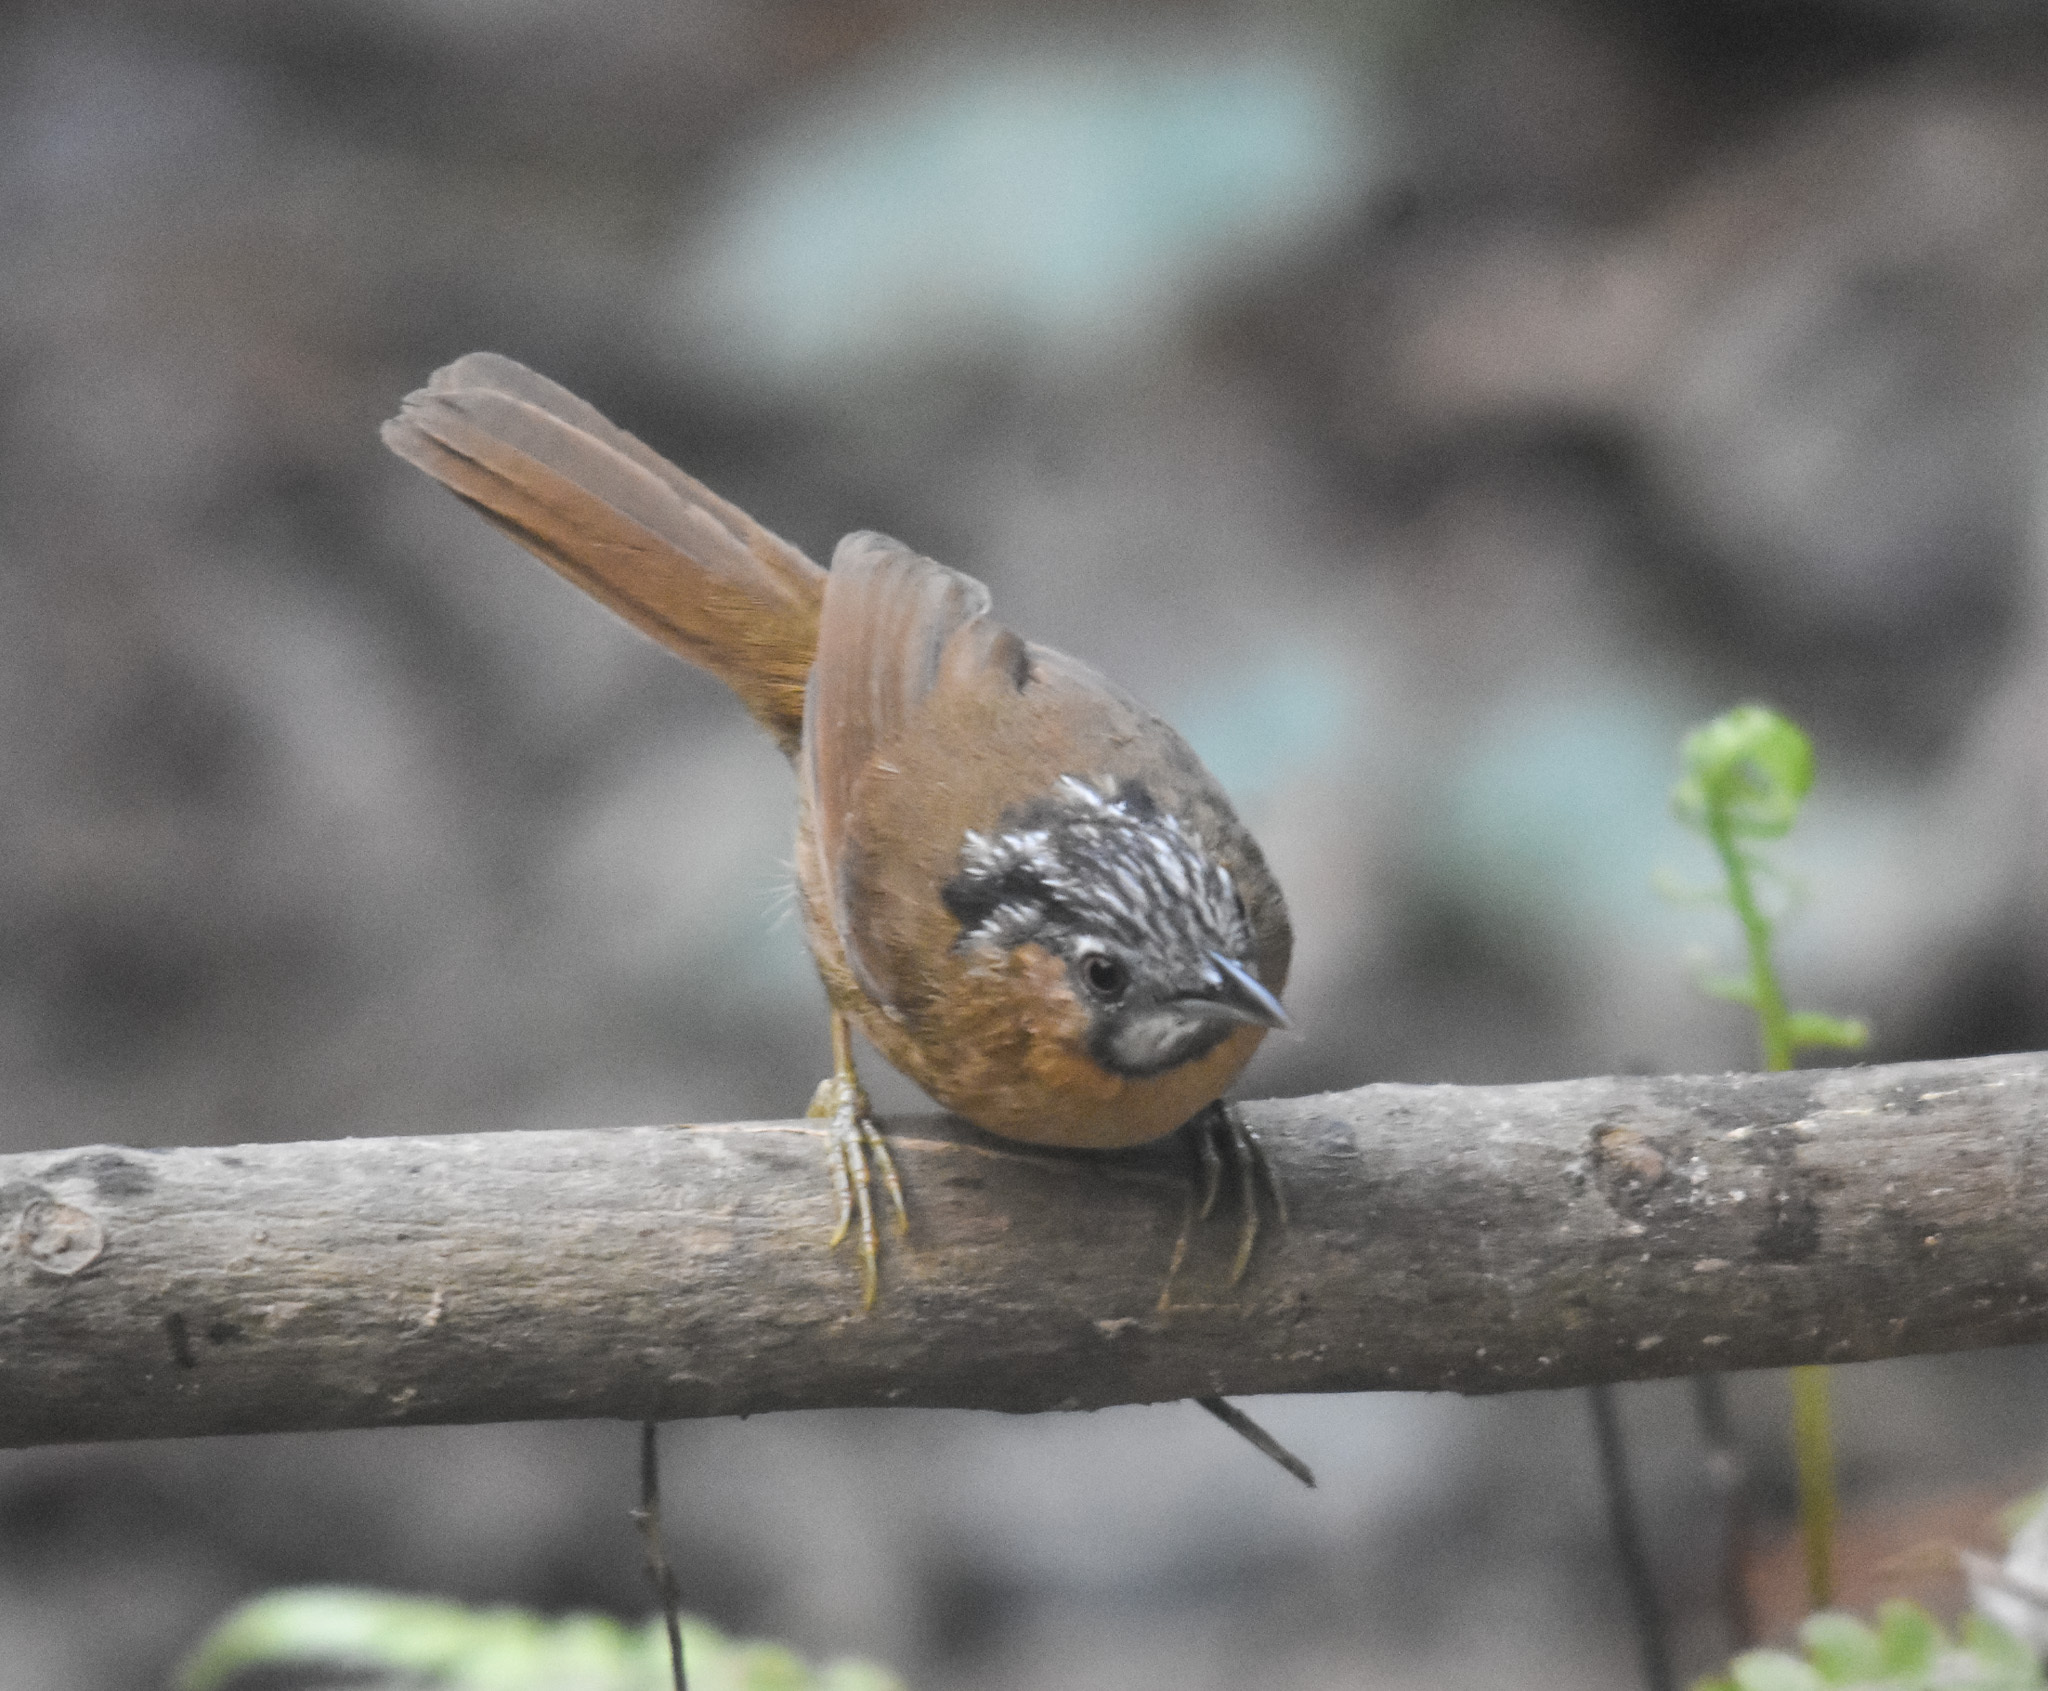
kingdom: Animalia
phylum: Chordata
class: Aves
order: Passeriformes
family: Timaliidae
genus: Stachyris
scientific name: Stachyris nigriceps
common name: Grey-throated babbler
